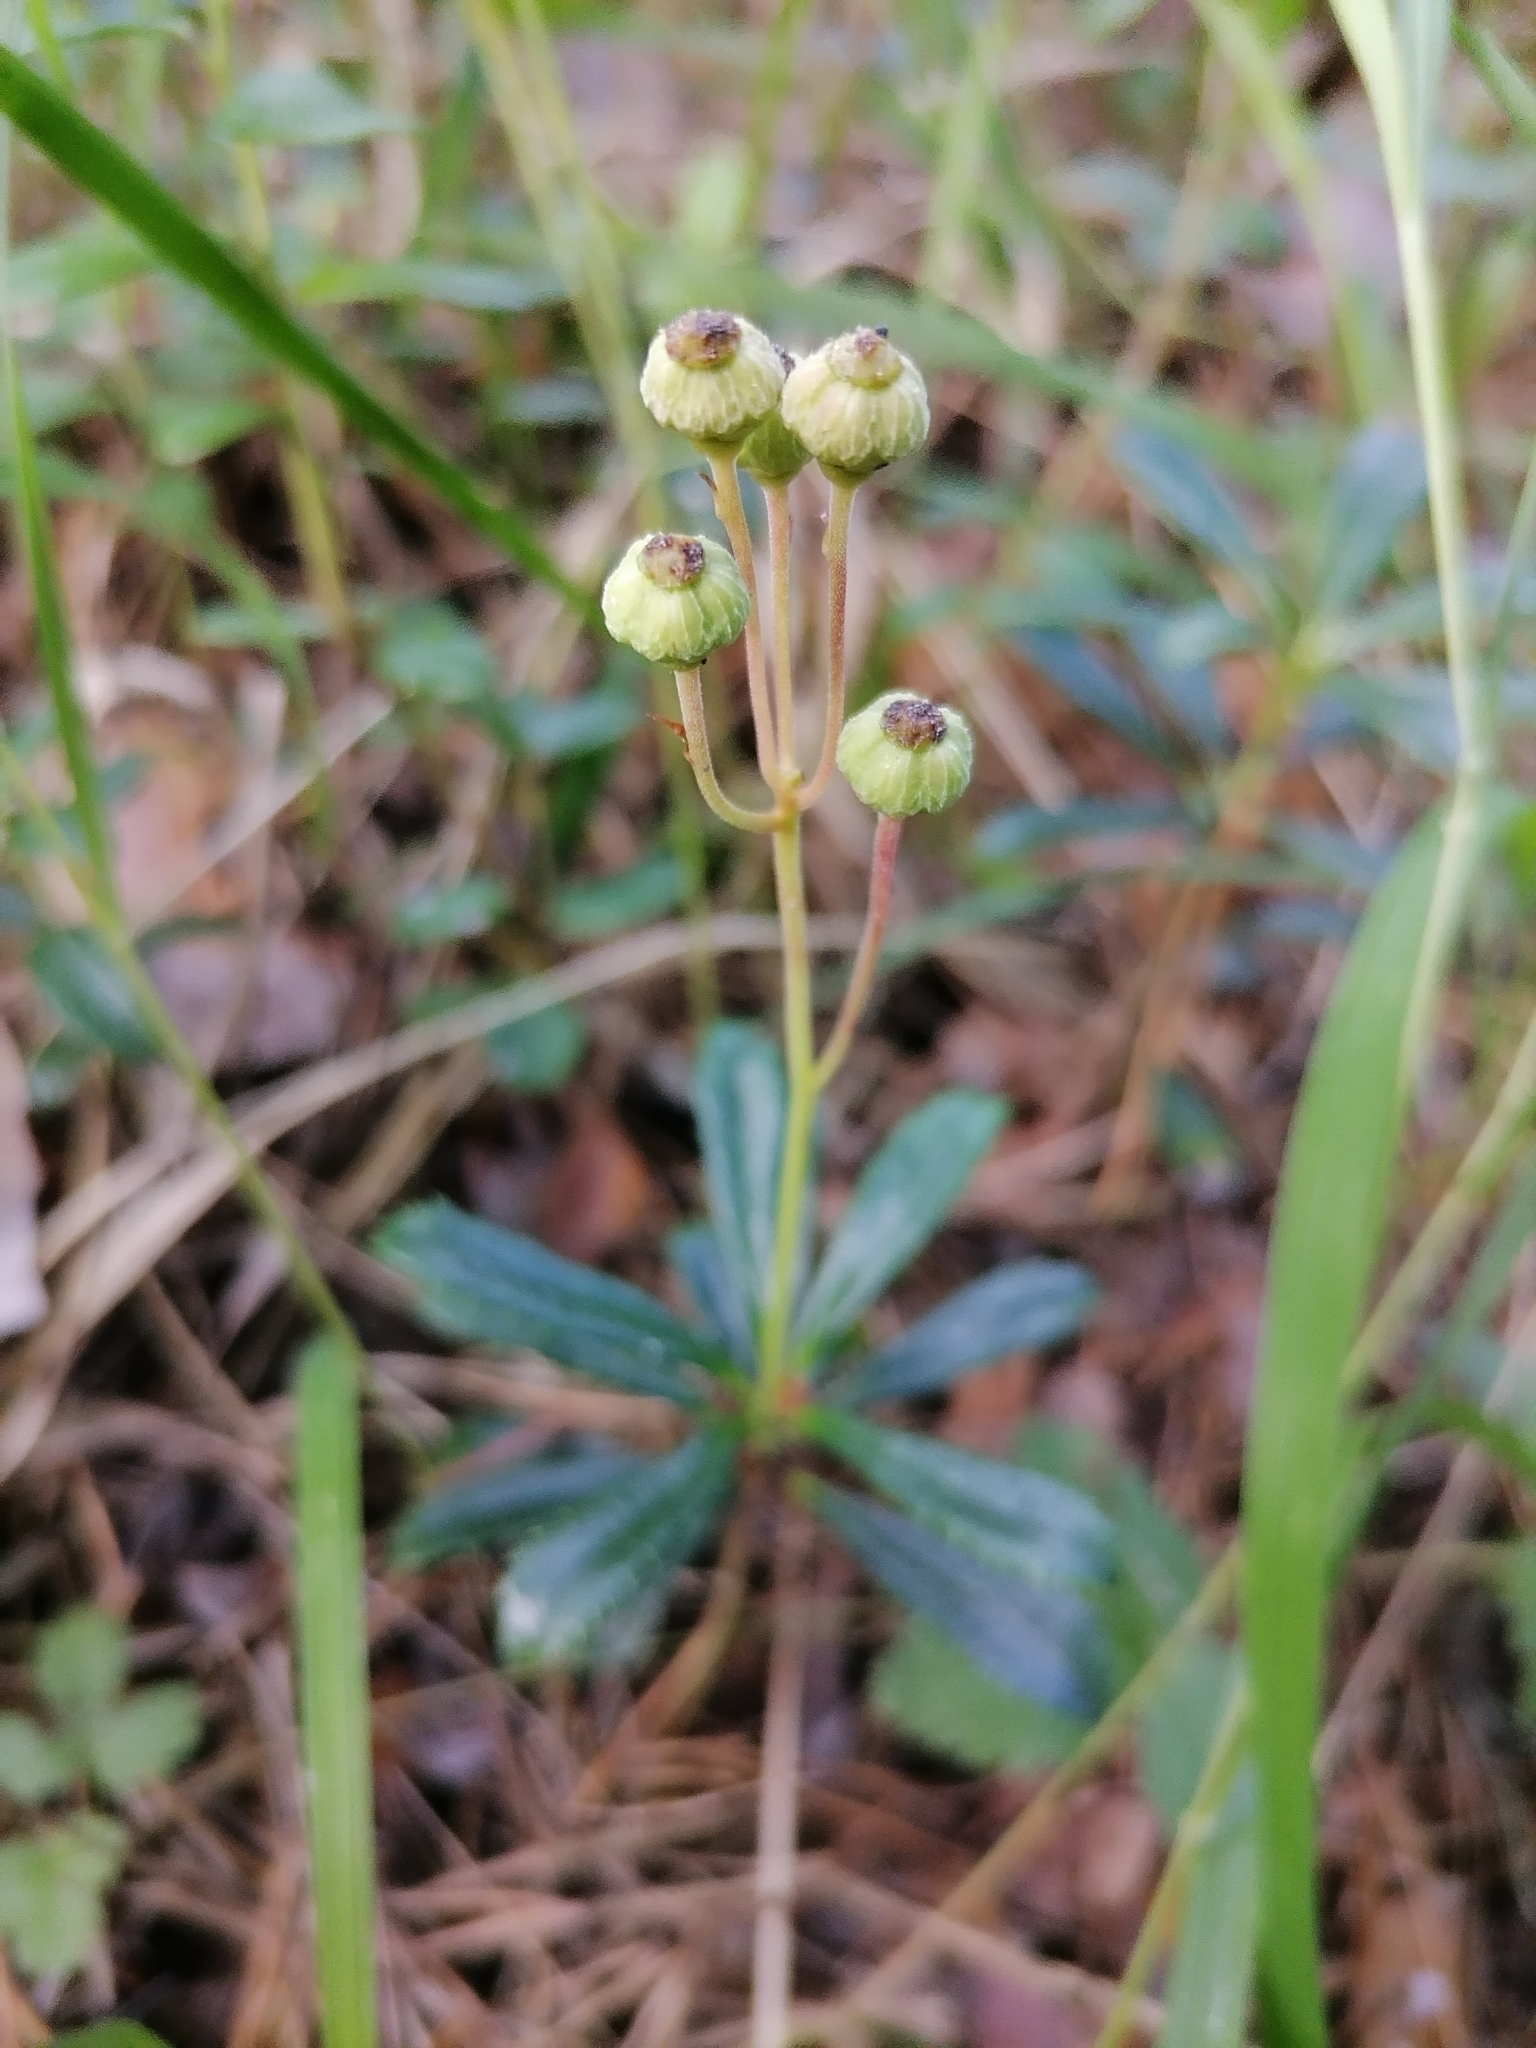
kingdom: Plantae
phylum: Tracheophyta
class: Magnoliopsida
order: Ericales
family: Ericaceae
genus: Chimaphila
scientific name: Chimaphila umbellata
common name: Pipsissewa
